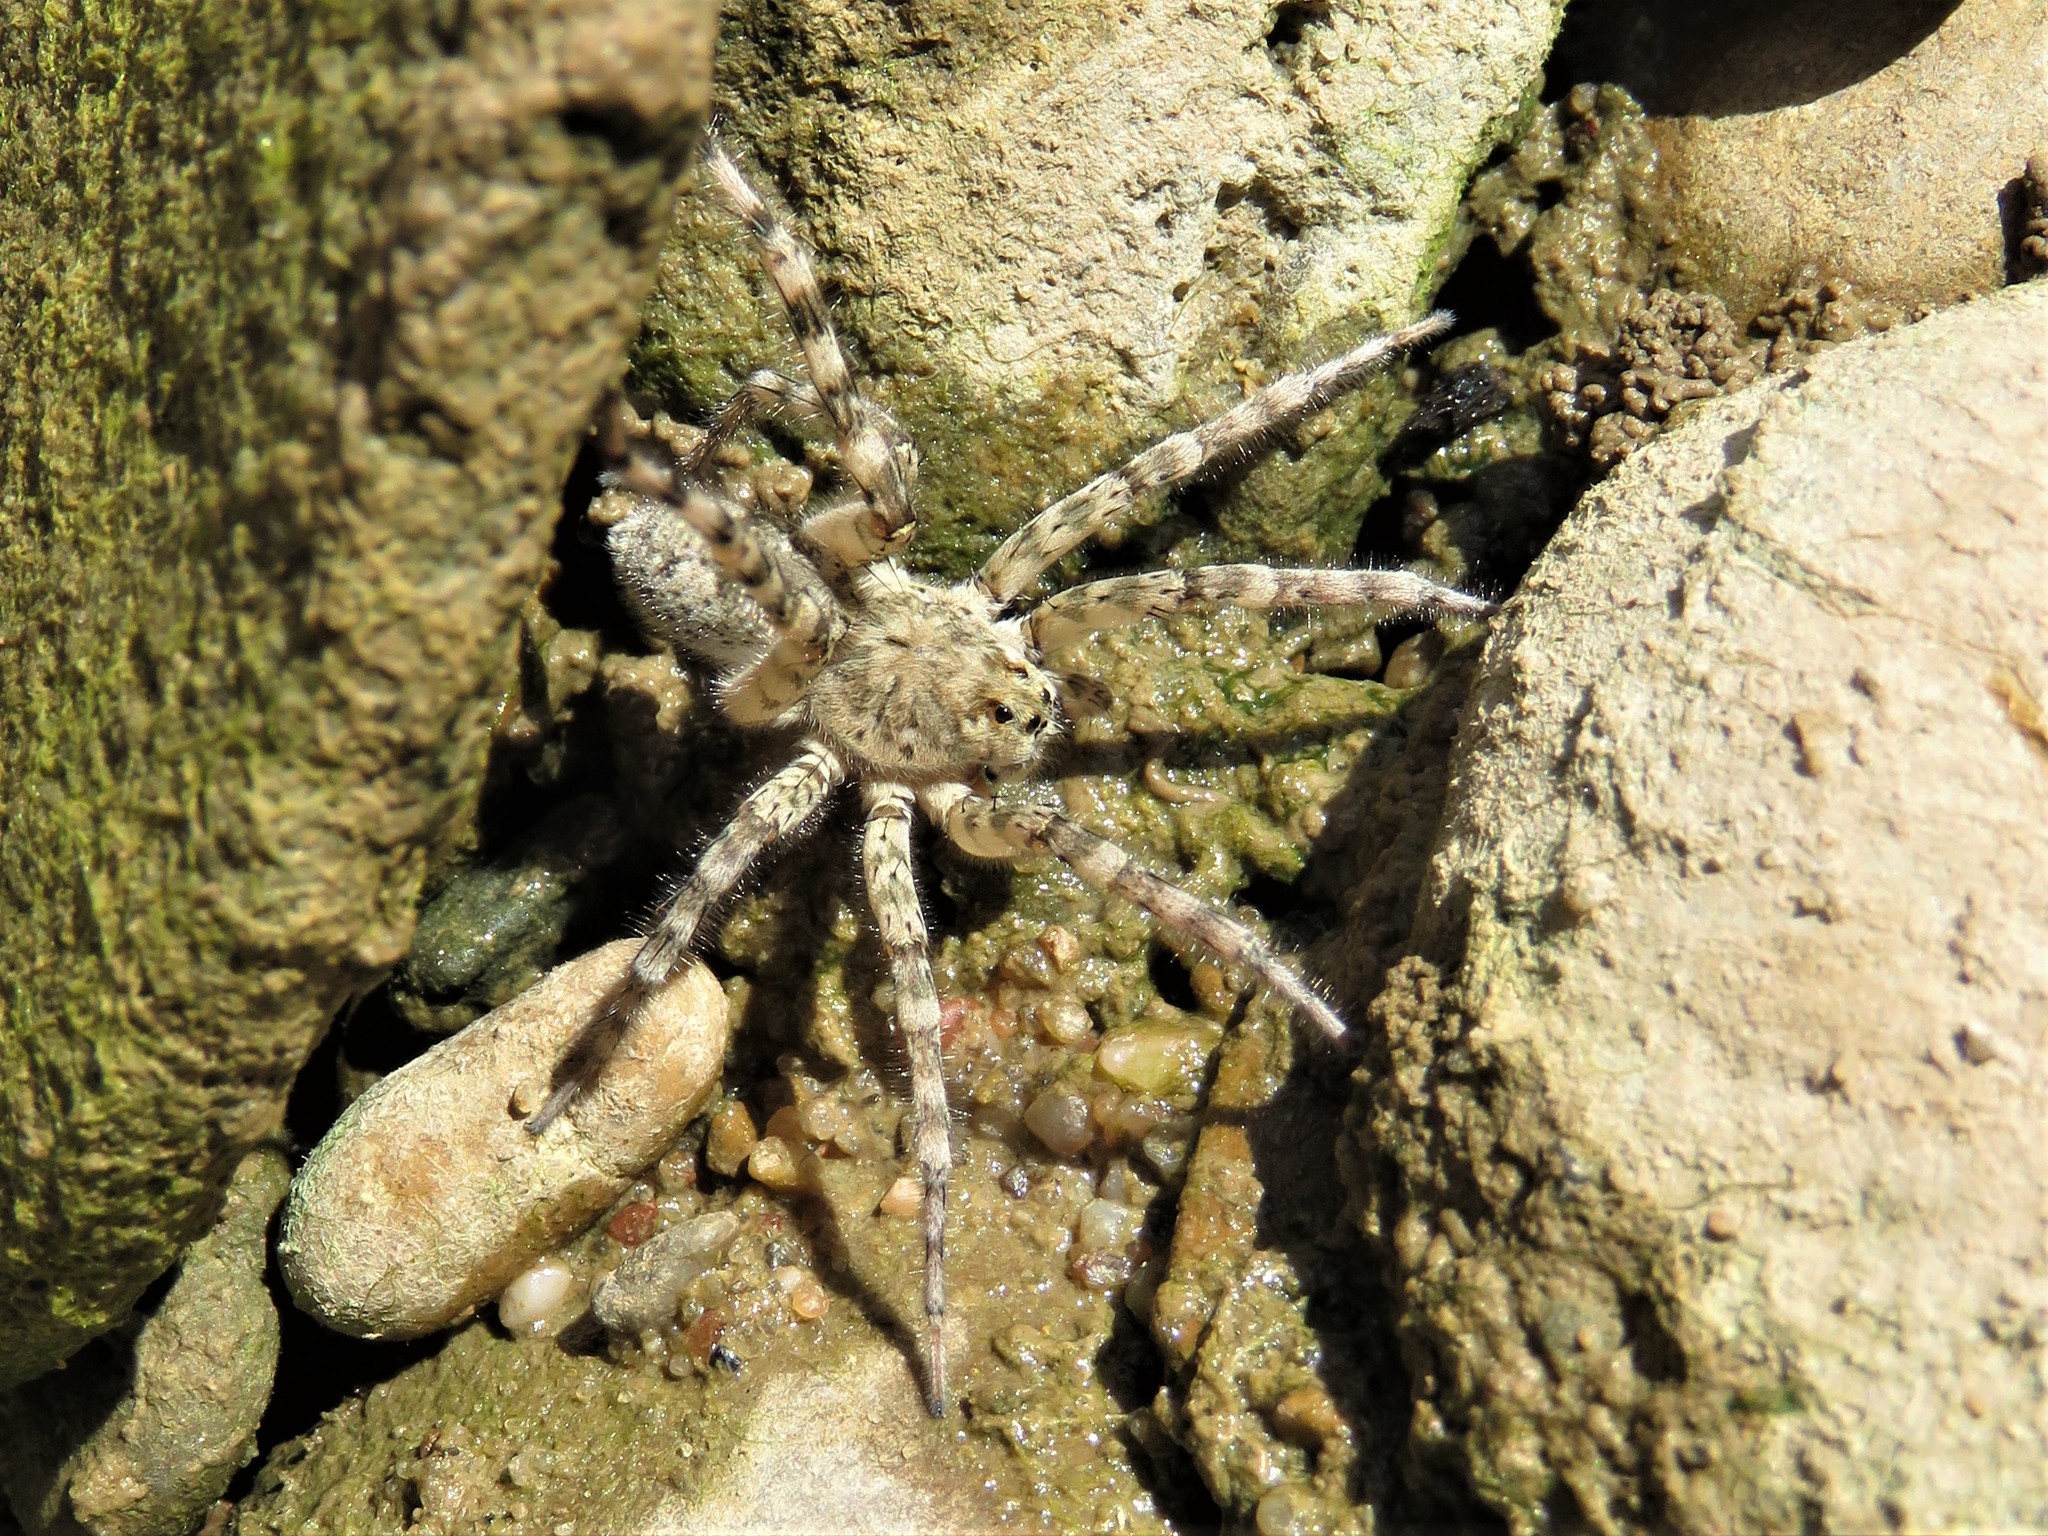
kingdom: Animalia
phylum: Arthropoda
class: Arachnida
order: Araneae
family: Lycosidae
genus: Arctosa
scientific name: Arctosa littoralis
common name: Wolf spiders
